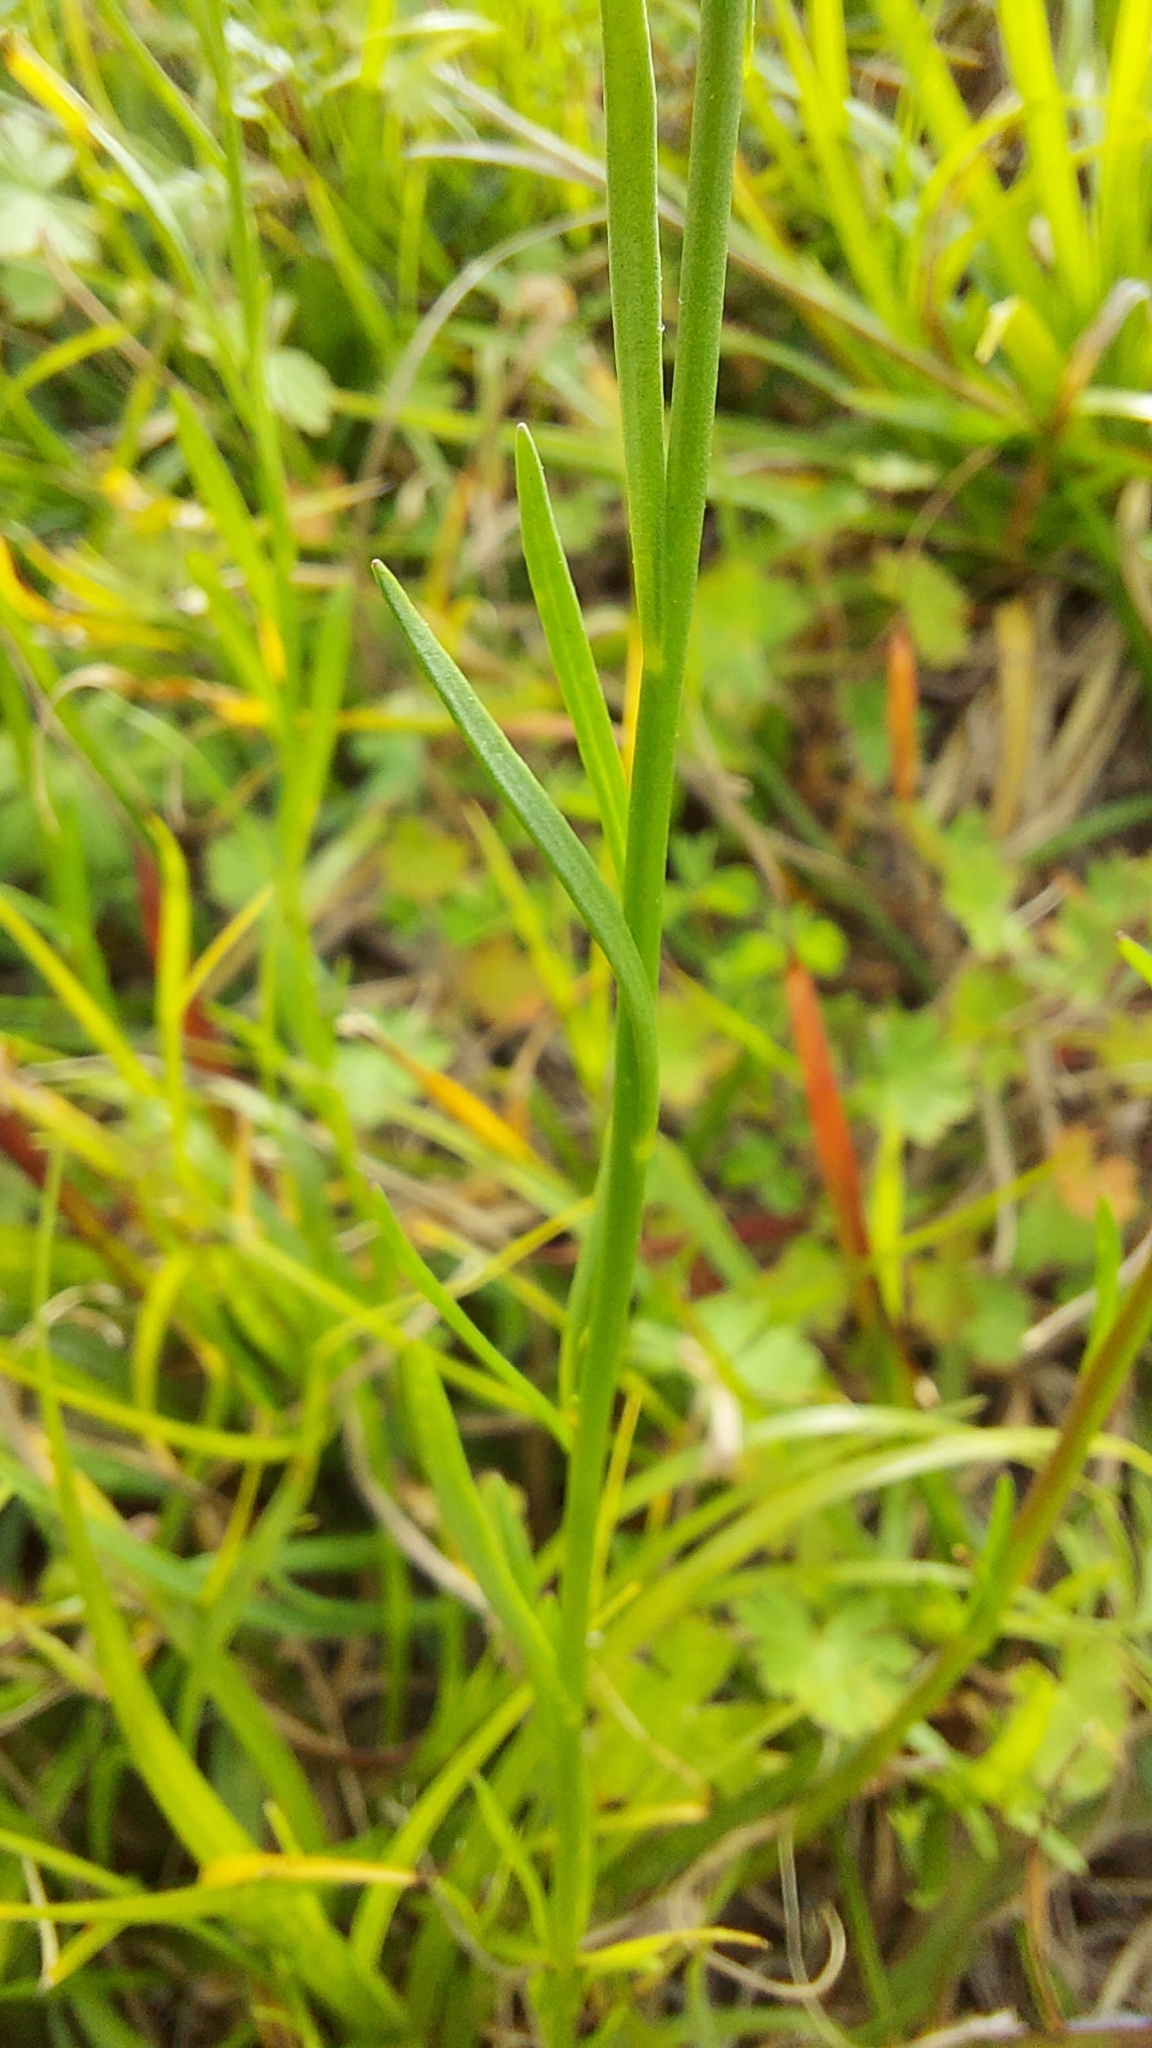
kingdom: Plantae
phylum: Tracheophyta
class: Magnoliopsida
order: Lamiales
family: Plantaginaceae
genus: Nuttallanthus
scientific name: Nuttallanthus canadensis
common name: Blue toadflax
